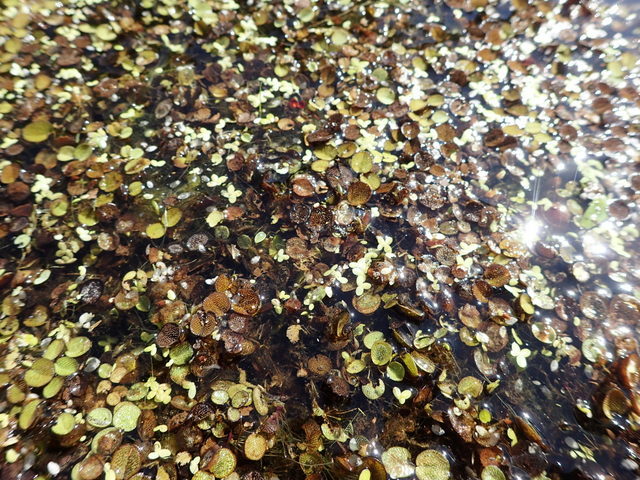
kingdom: Plantae
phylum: Tracheophyta
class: Polypodiopsida
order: Salviniales
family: Salviniaceae
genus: Salvinia
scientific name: Salvinia minima
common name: Water spangles
